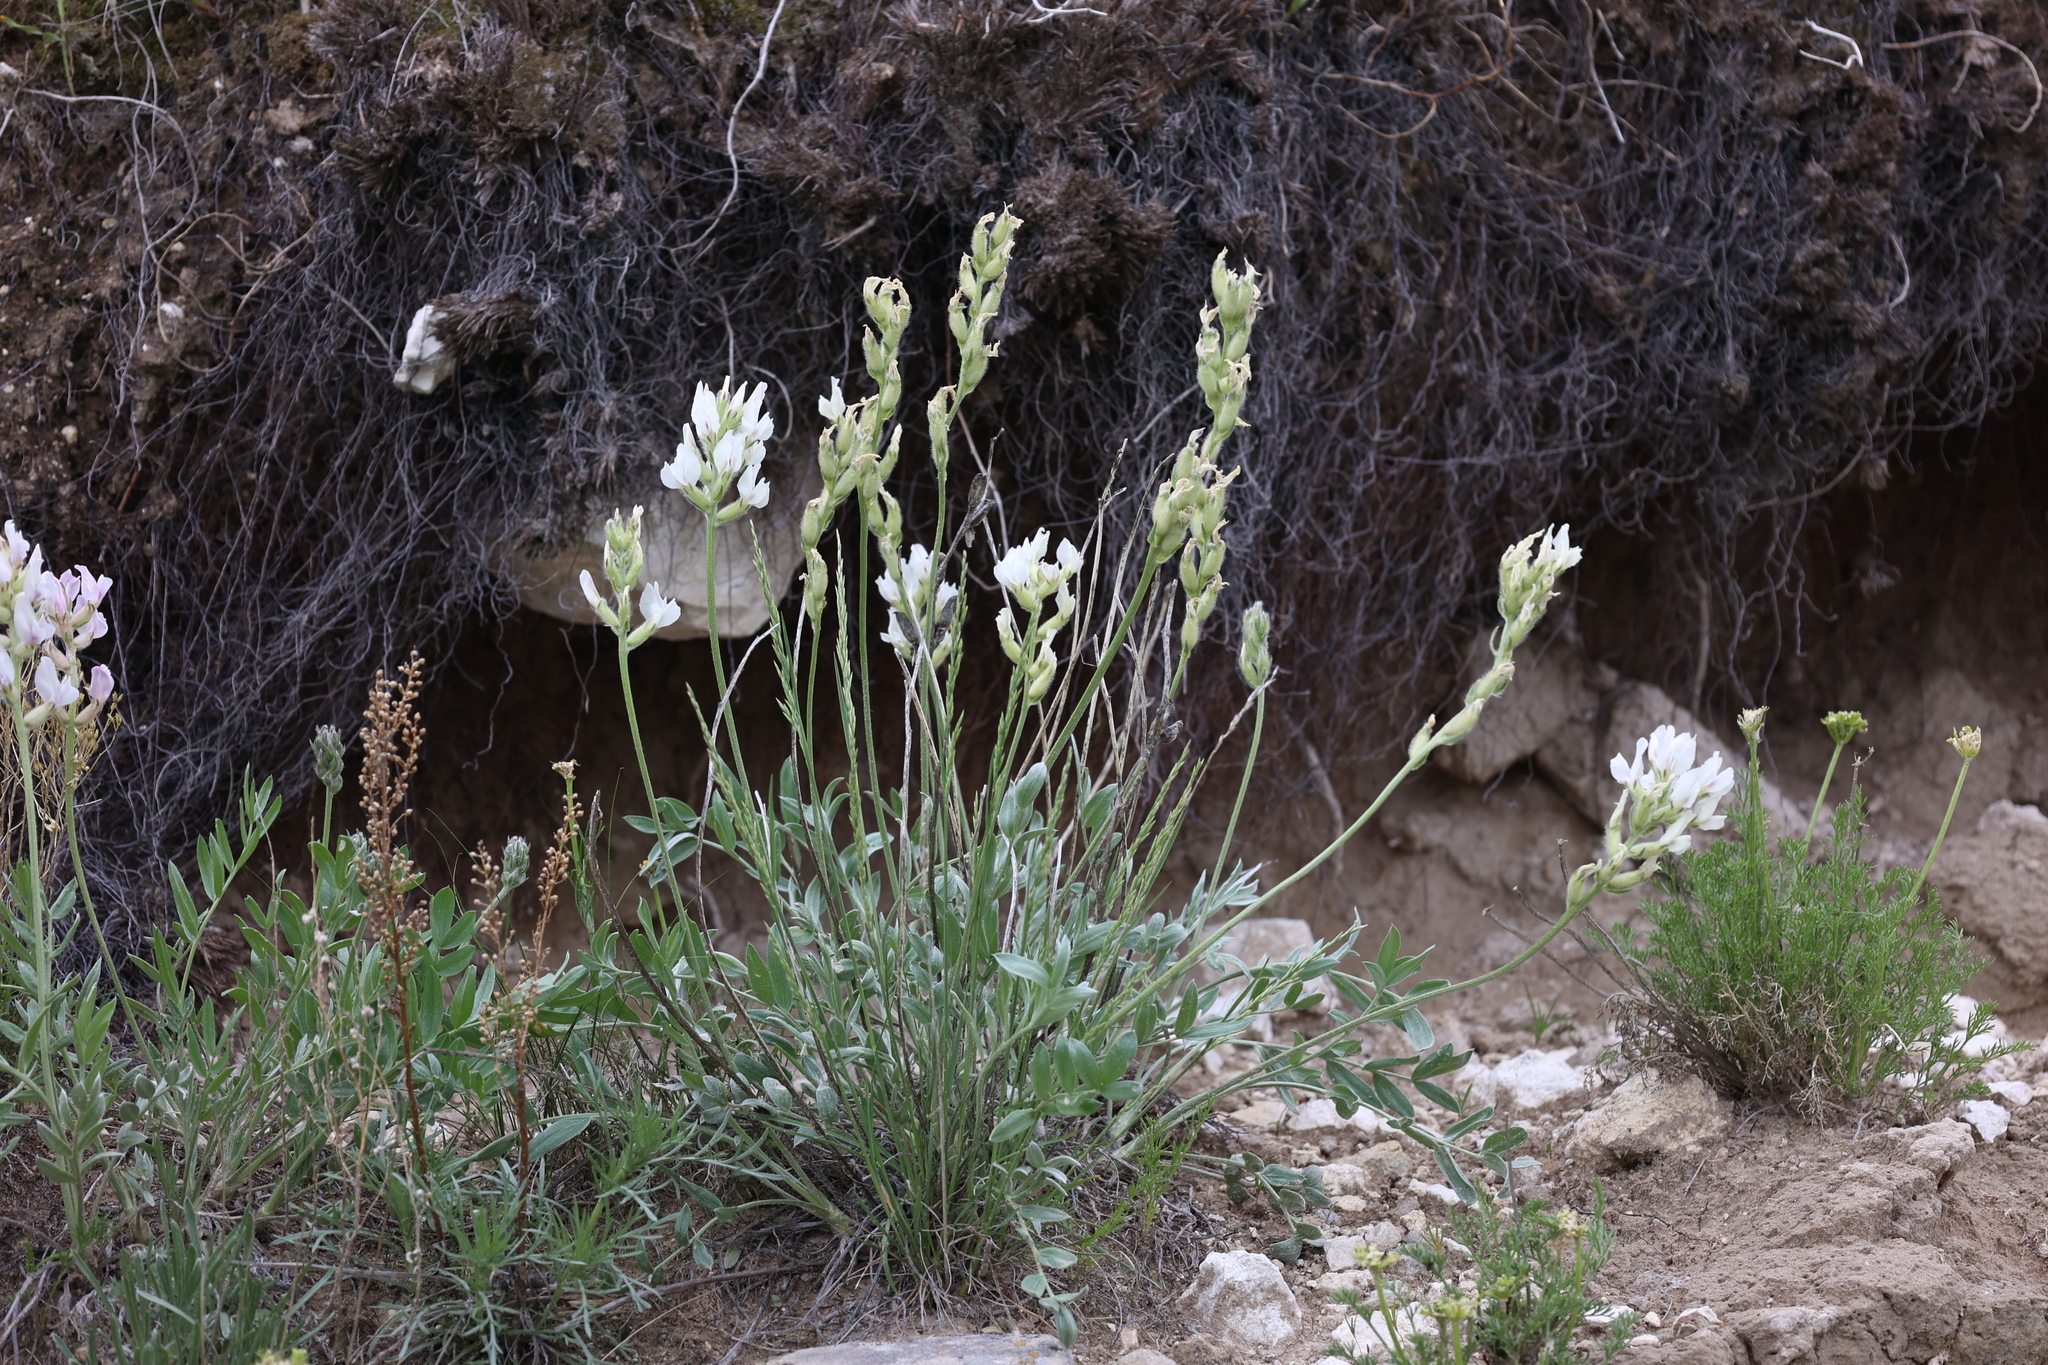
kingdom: Plantae
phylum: Tracheophyta
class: Magnoliopsida
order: Fabales
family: Fabaceae
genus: Oxytropis
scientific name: Oxytropis sericea
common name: Silky locoweed
